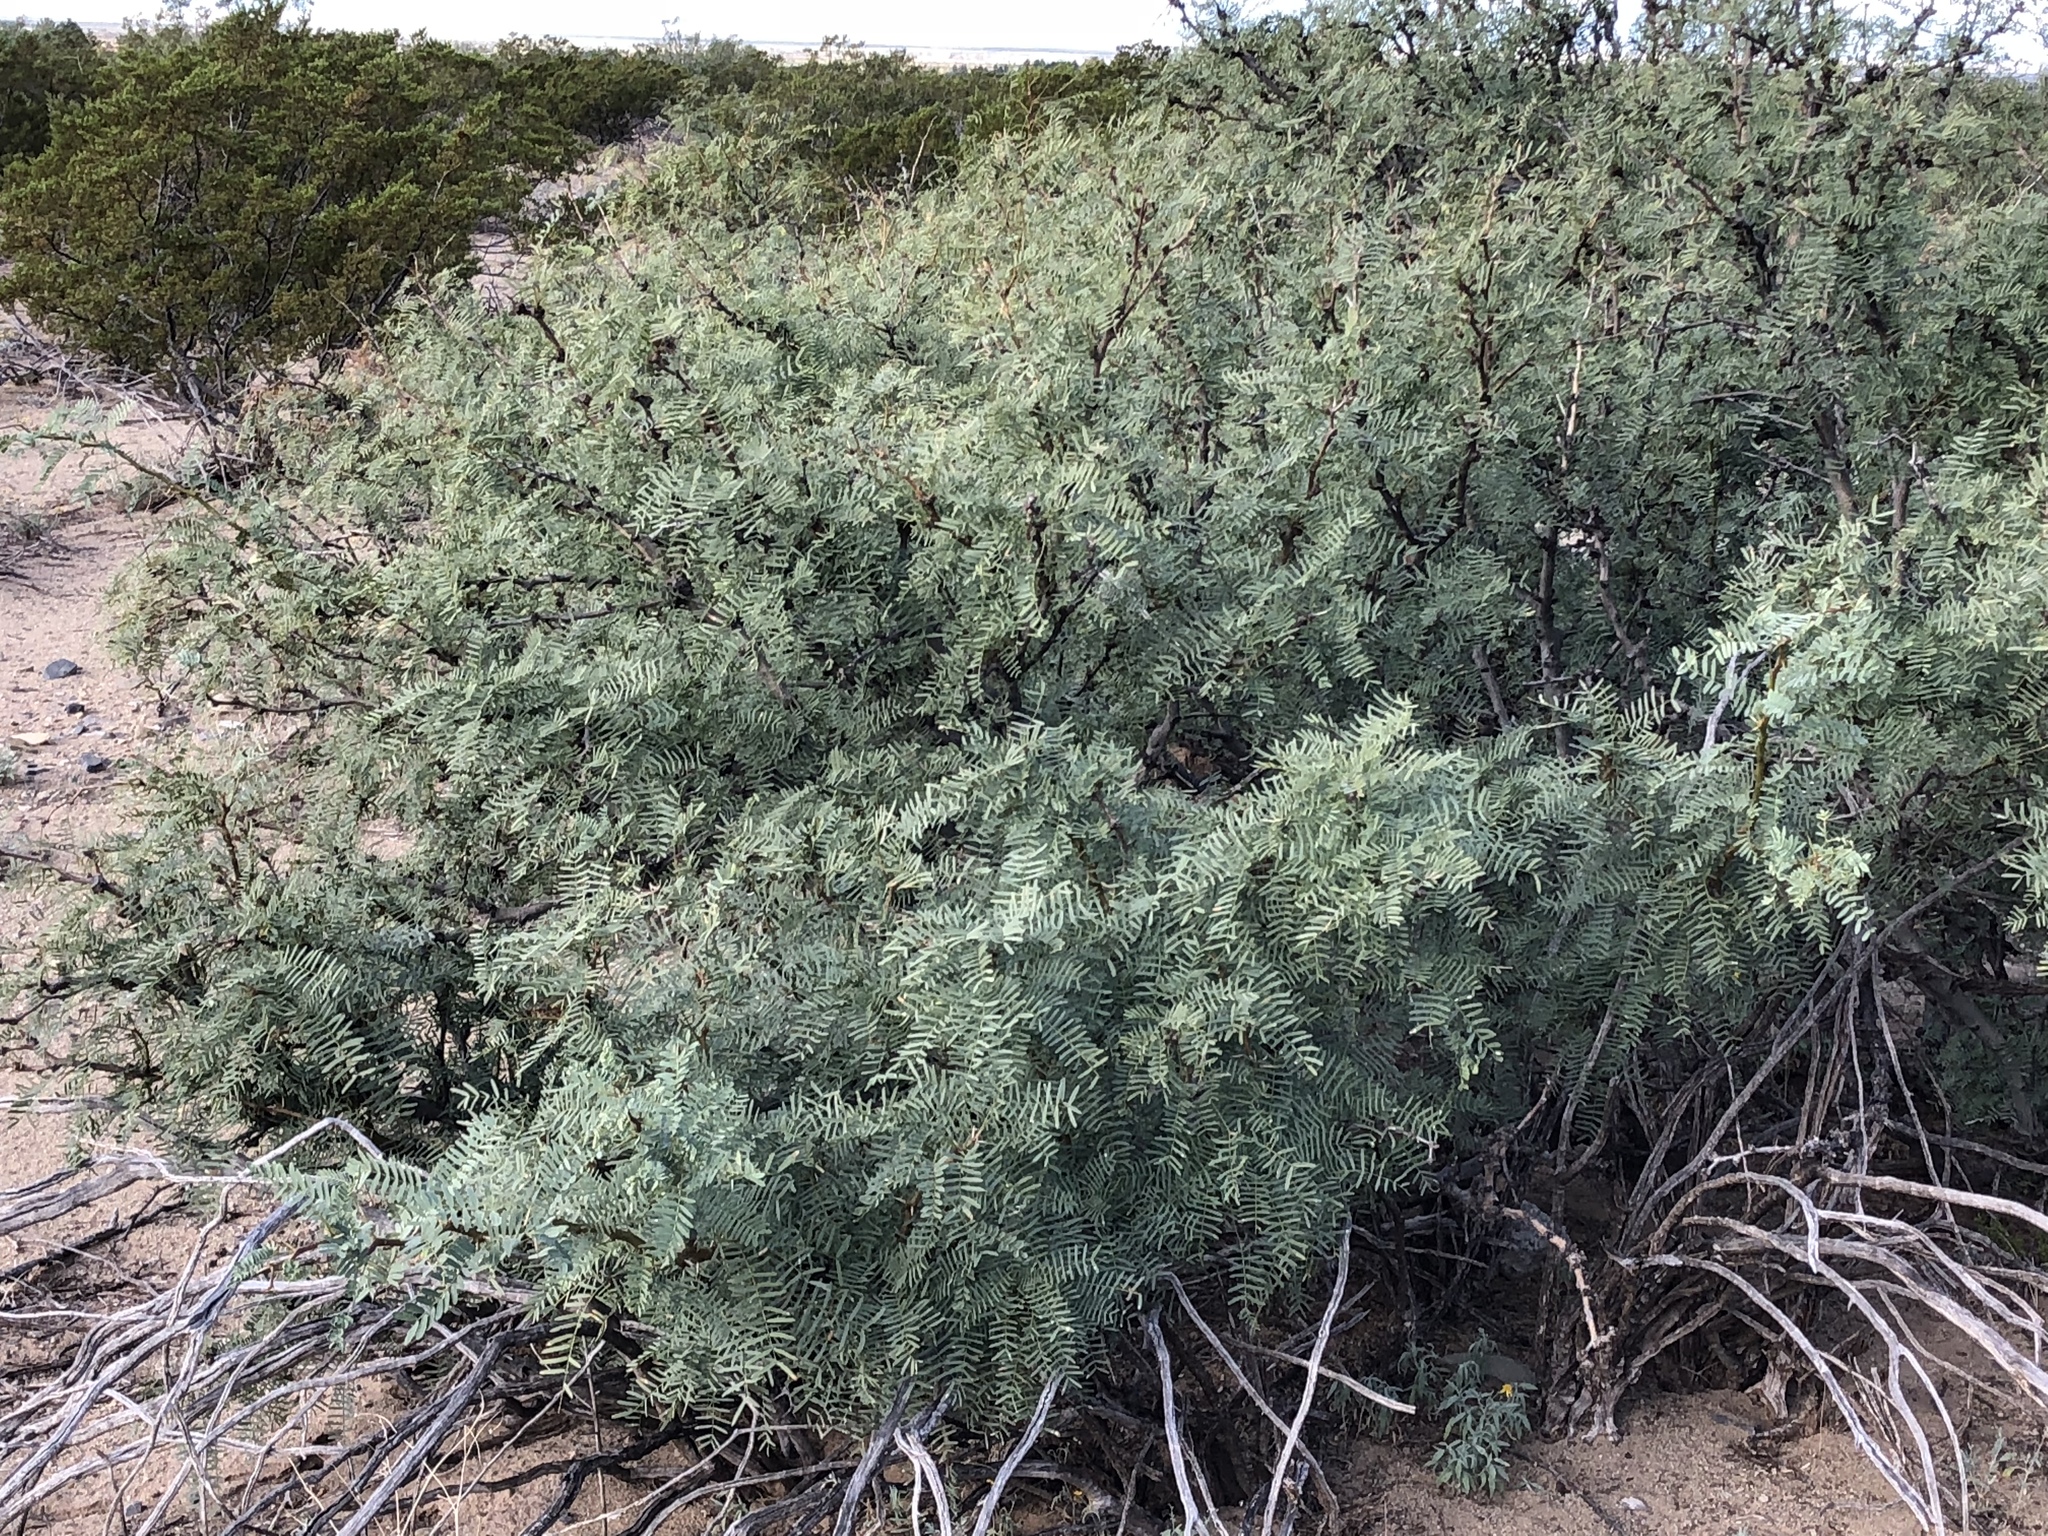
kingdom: Plantae
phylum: Tracheophyta
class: Magnoliopsida
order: Fabales
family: Fabaceae
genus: Prosopis
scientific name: Prosopis glandulosa
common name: Honey mesquite
